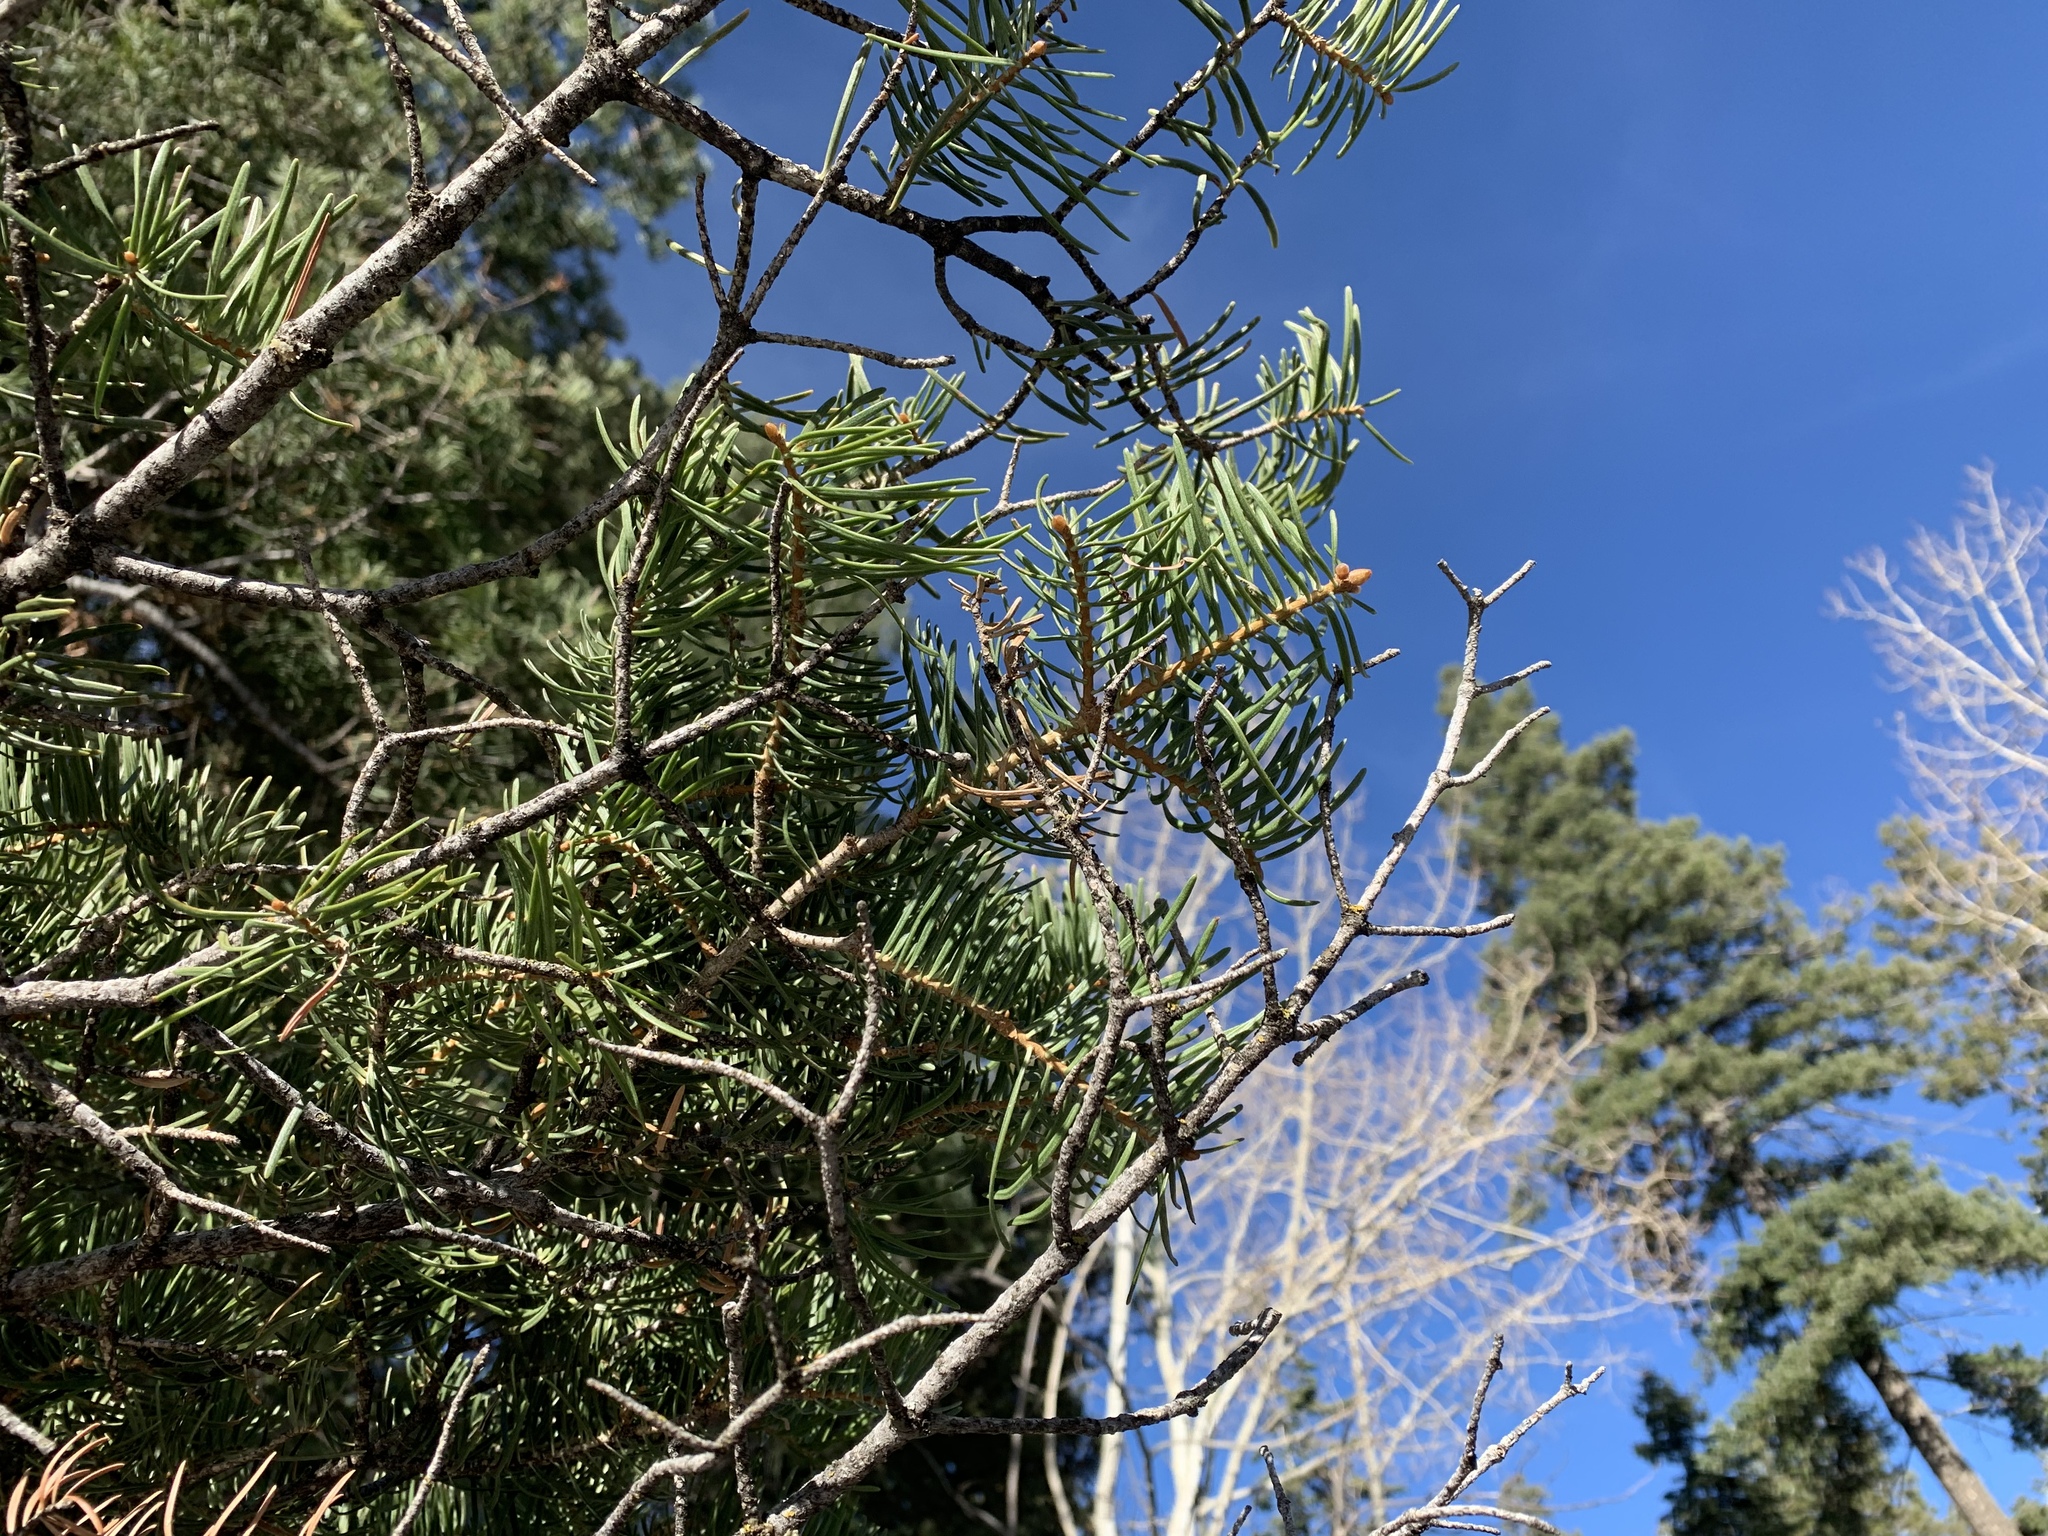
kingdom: Plantae
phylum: Tracheophyta
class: Pinopsida
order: Pinales
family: Pinaceae
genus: Abies
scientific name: Abies concolor
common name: Colorado fir
